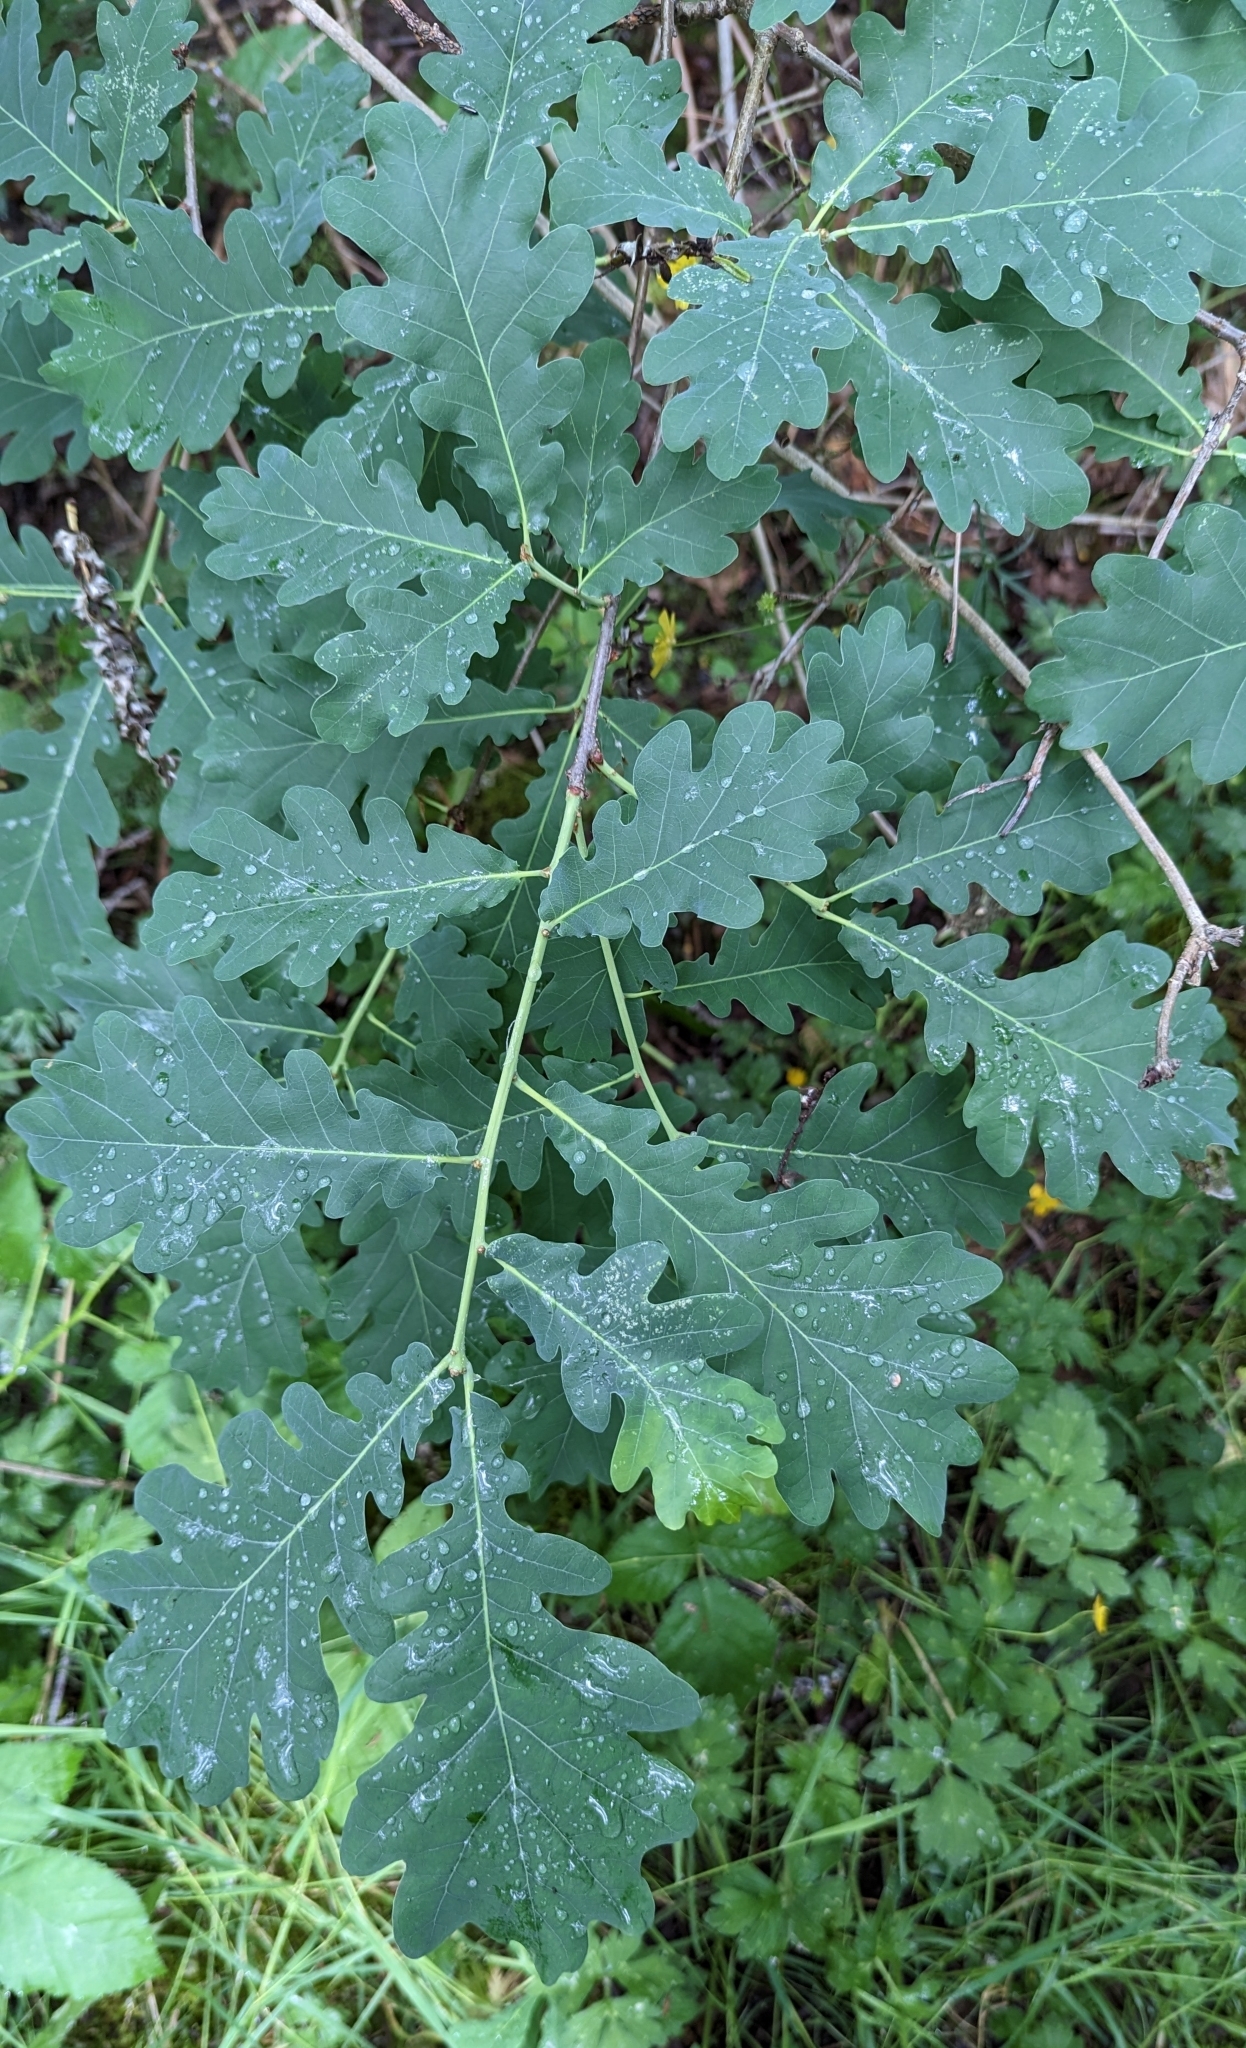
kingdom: Plantae
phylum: Tracheophyta
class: Magnoliopsida
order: Fagales
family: Fagaceae
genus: Quercus
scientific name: Quercus robur
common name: Pedunculate oak
